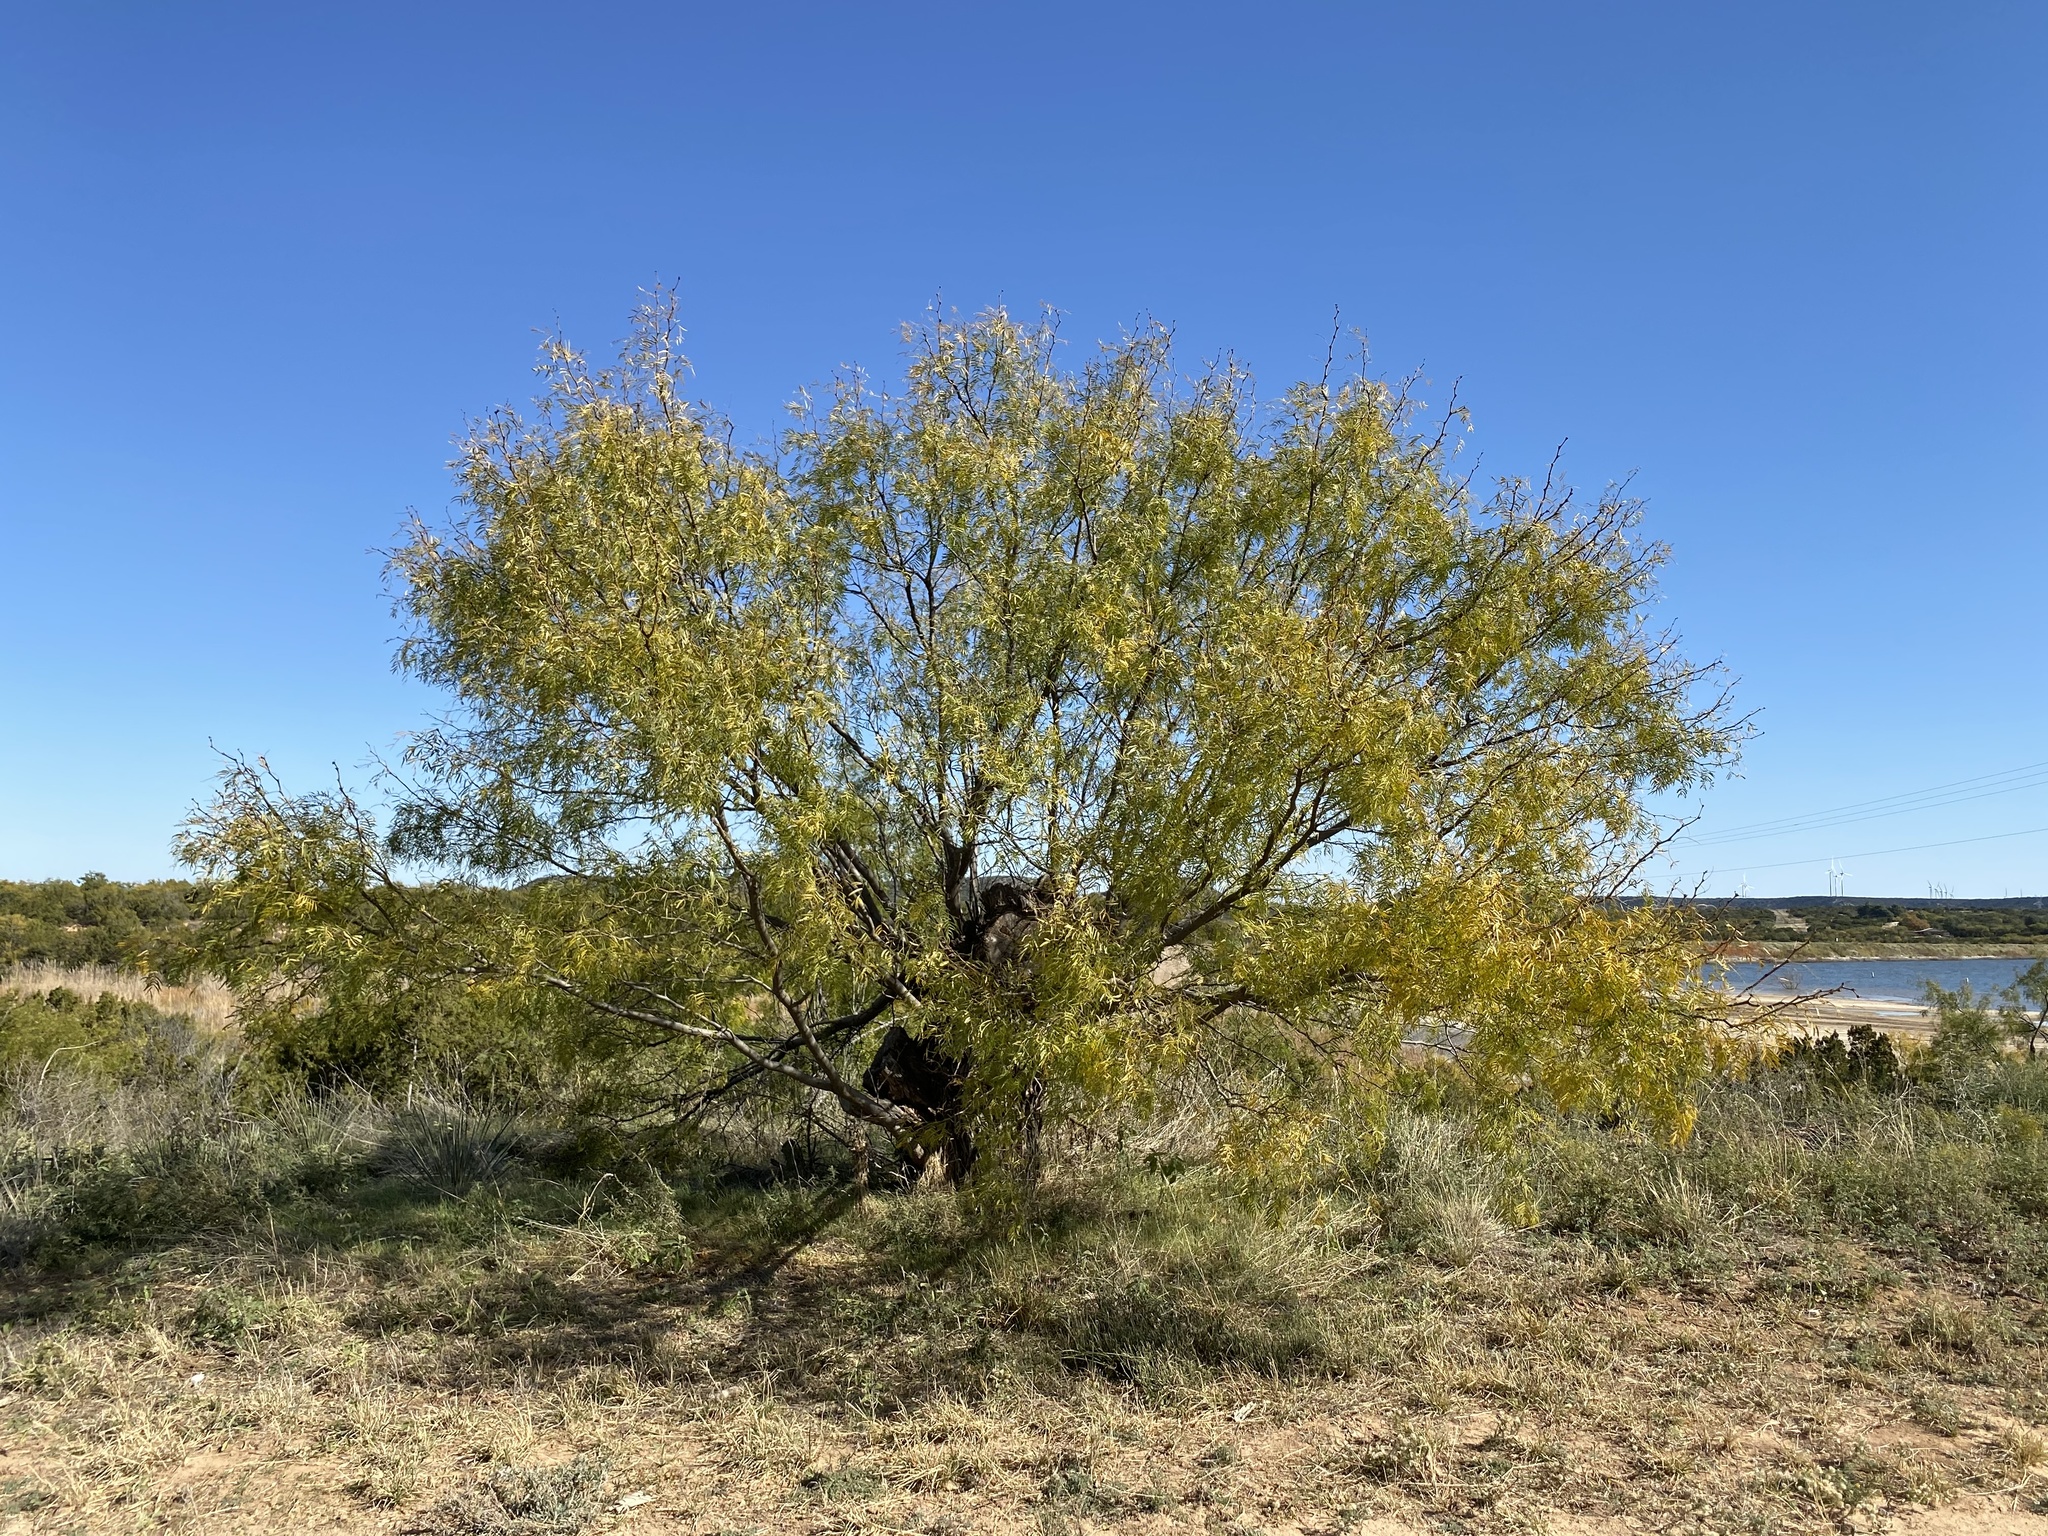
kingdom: Plantae
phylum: Tracheophyta
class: Magnoliopsida
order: Fabales
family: Fabaceae
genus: Prosopis
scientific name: Prosopis glandulosa
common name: Honey mesquite
